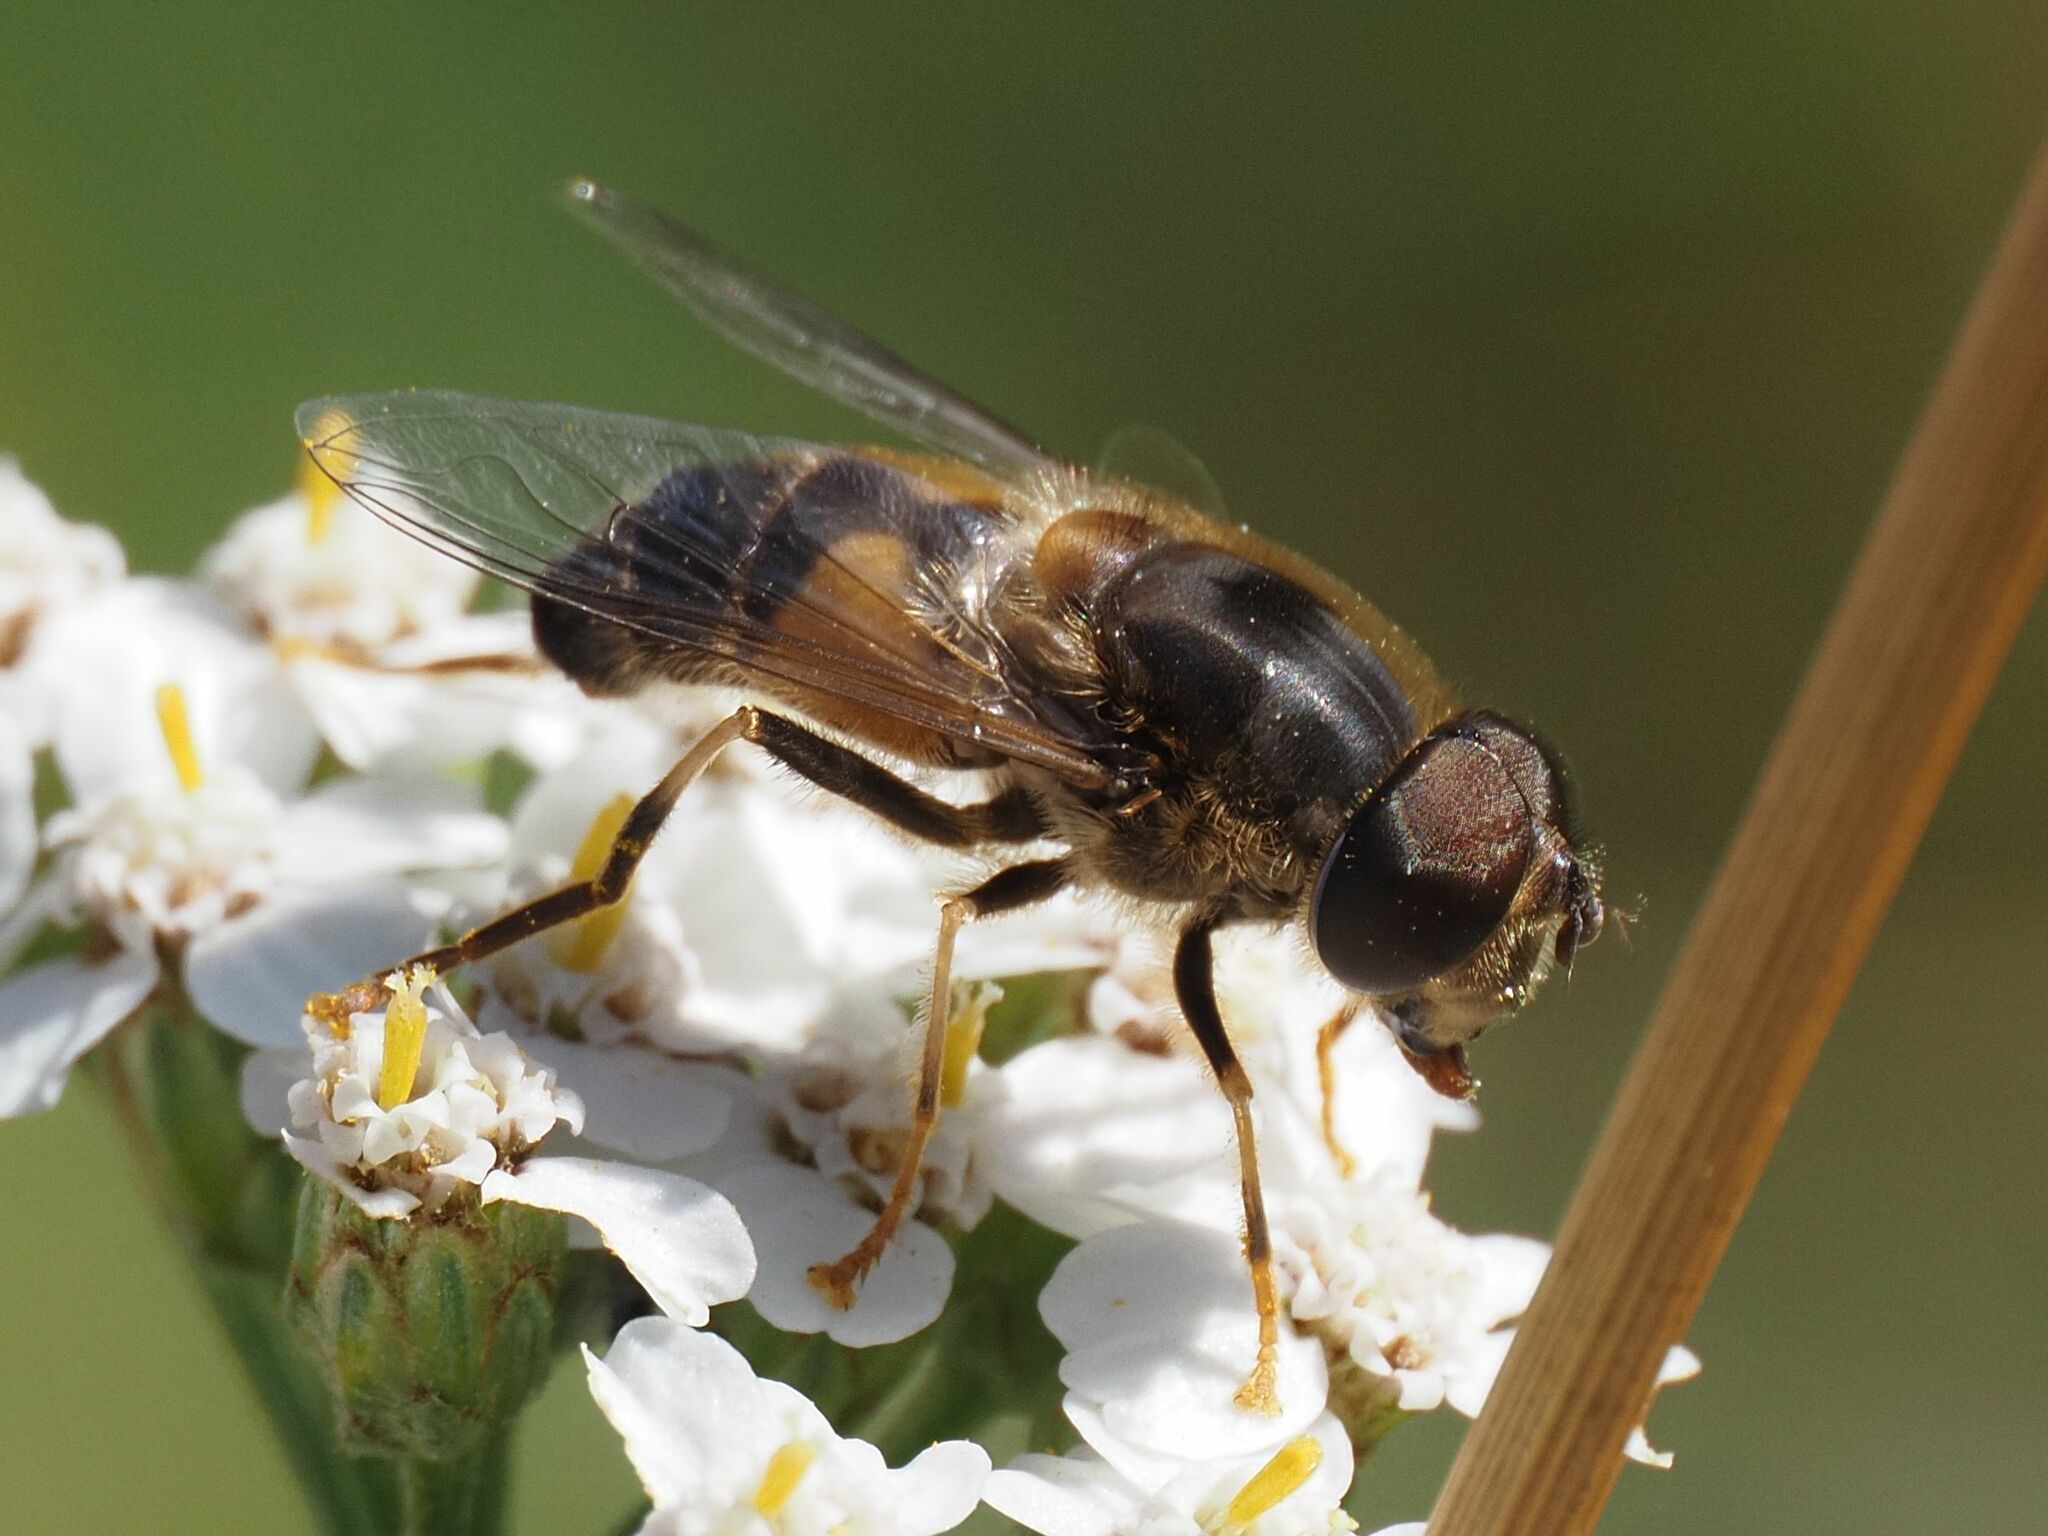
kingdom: Animalia
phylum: Arthropoda
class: Insecta
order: Diptera
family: Syrphidae
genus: Eristalis
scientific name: Eristalis pertinax
